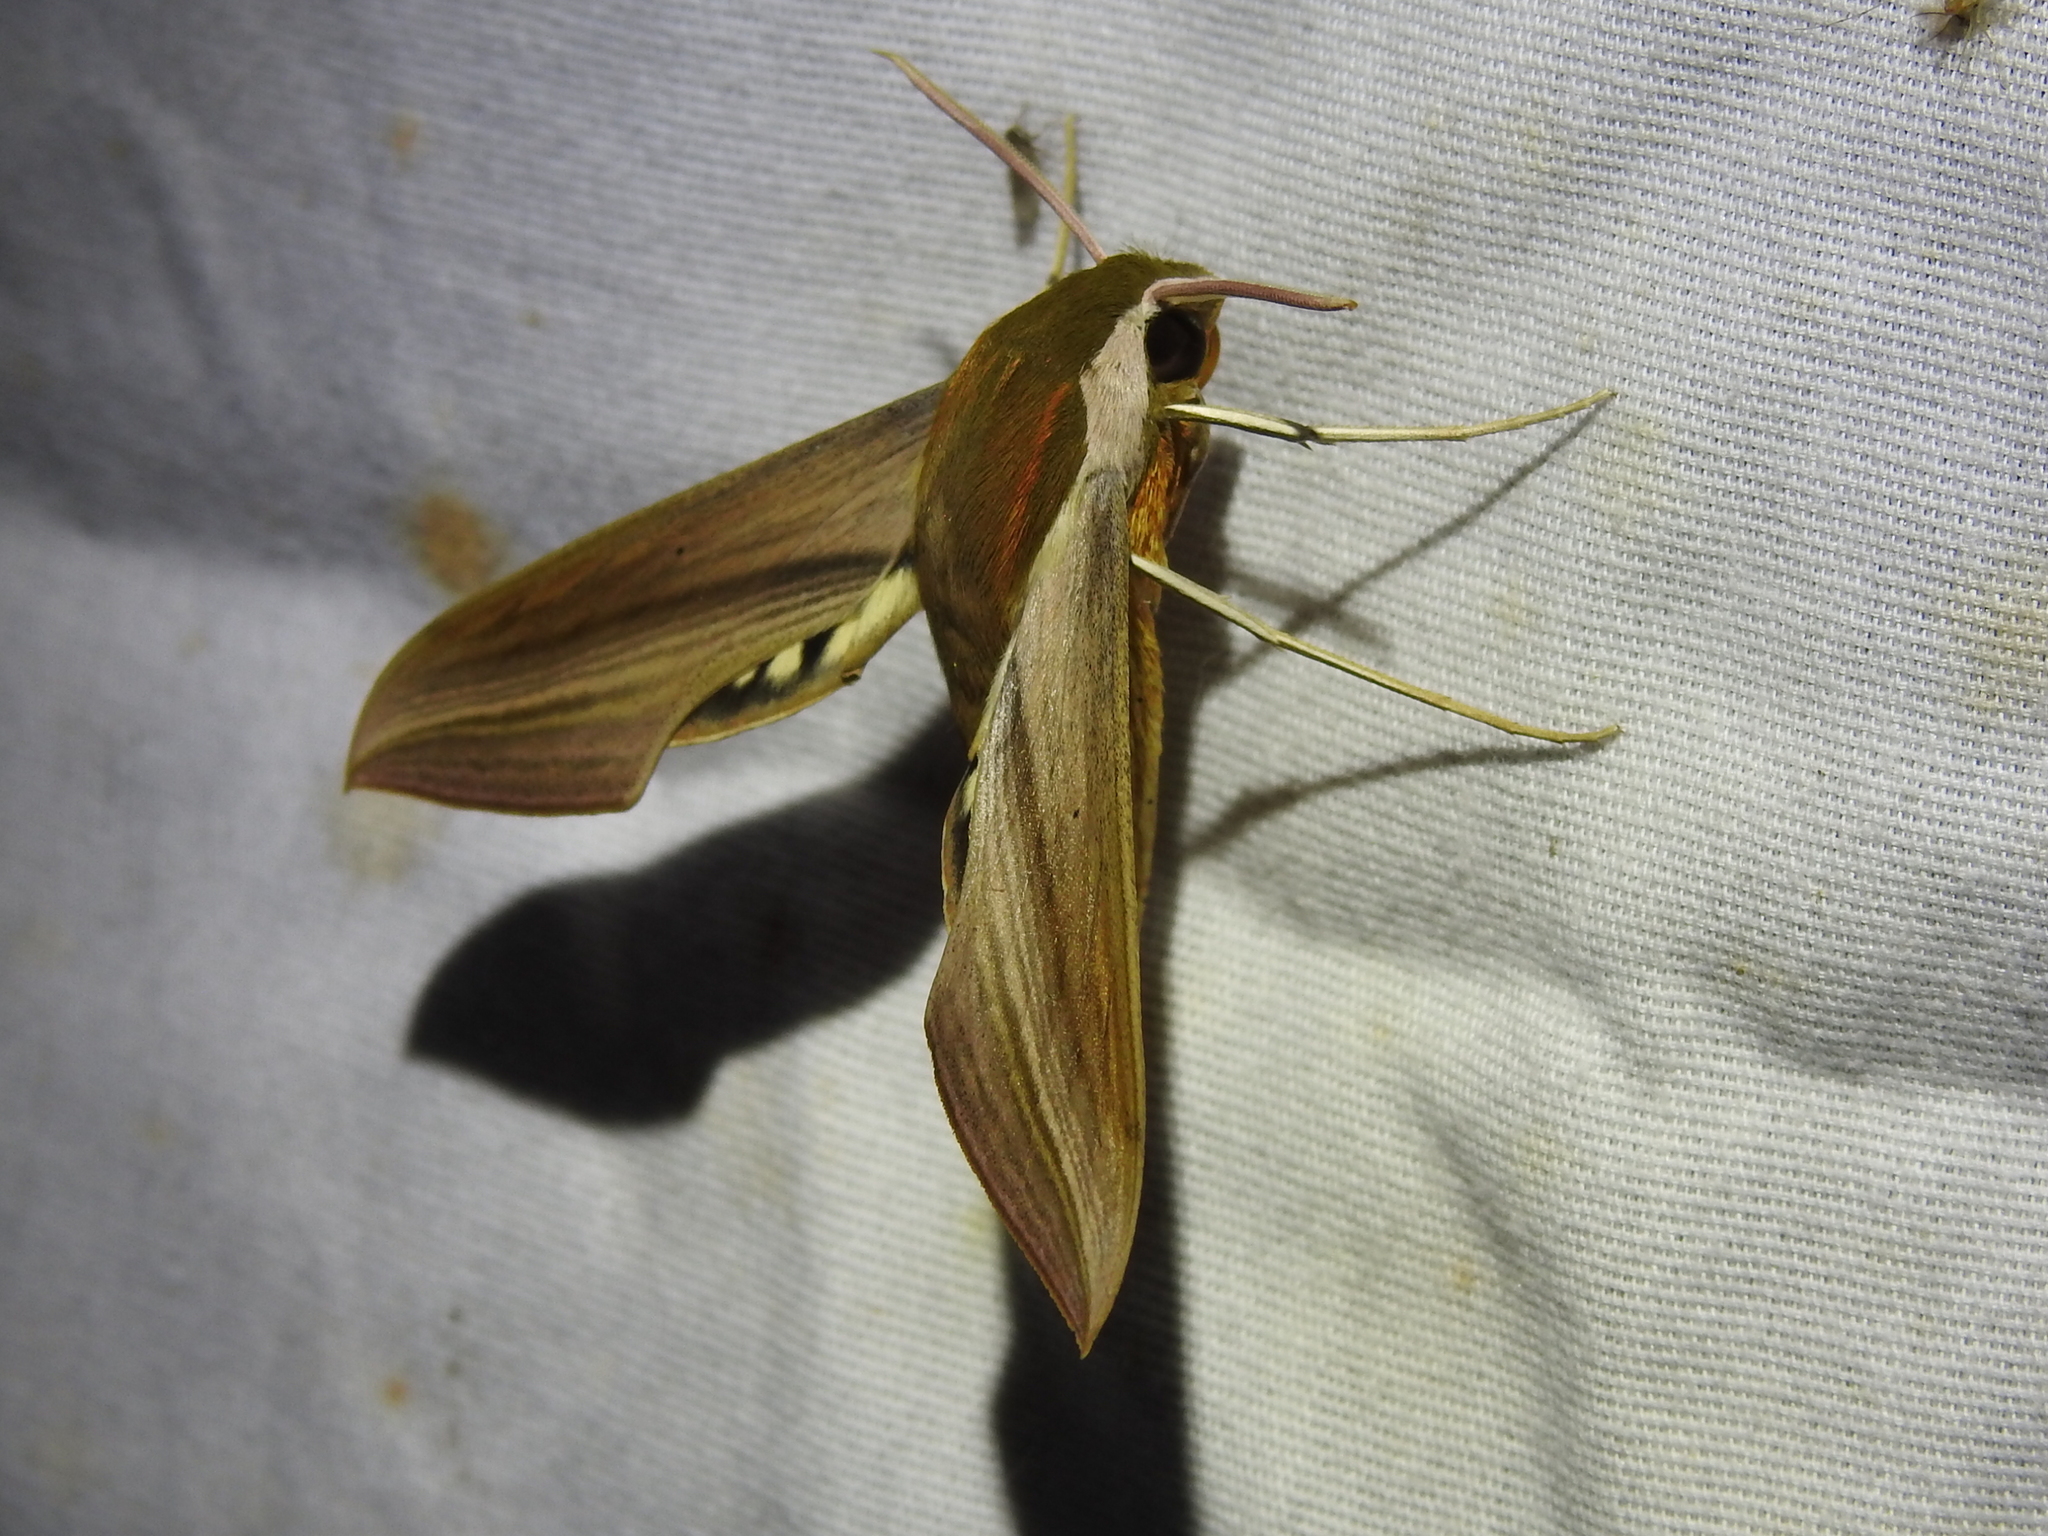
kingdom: Animalia
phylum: Arthropoda
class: Insecta
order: Lepidoptera
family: Sphingidae
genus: Xylophanes
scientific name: Xylophanes tersa
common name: Tersa sphinx
